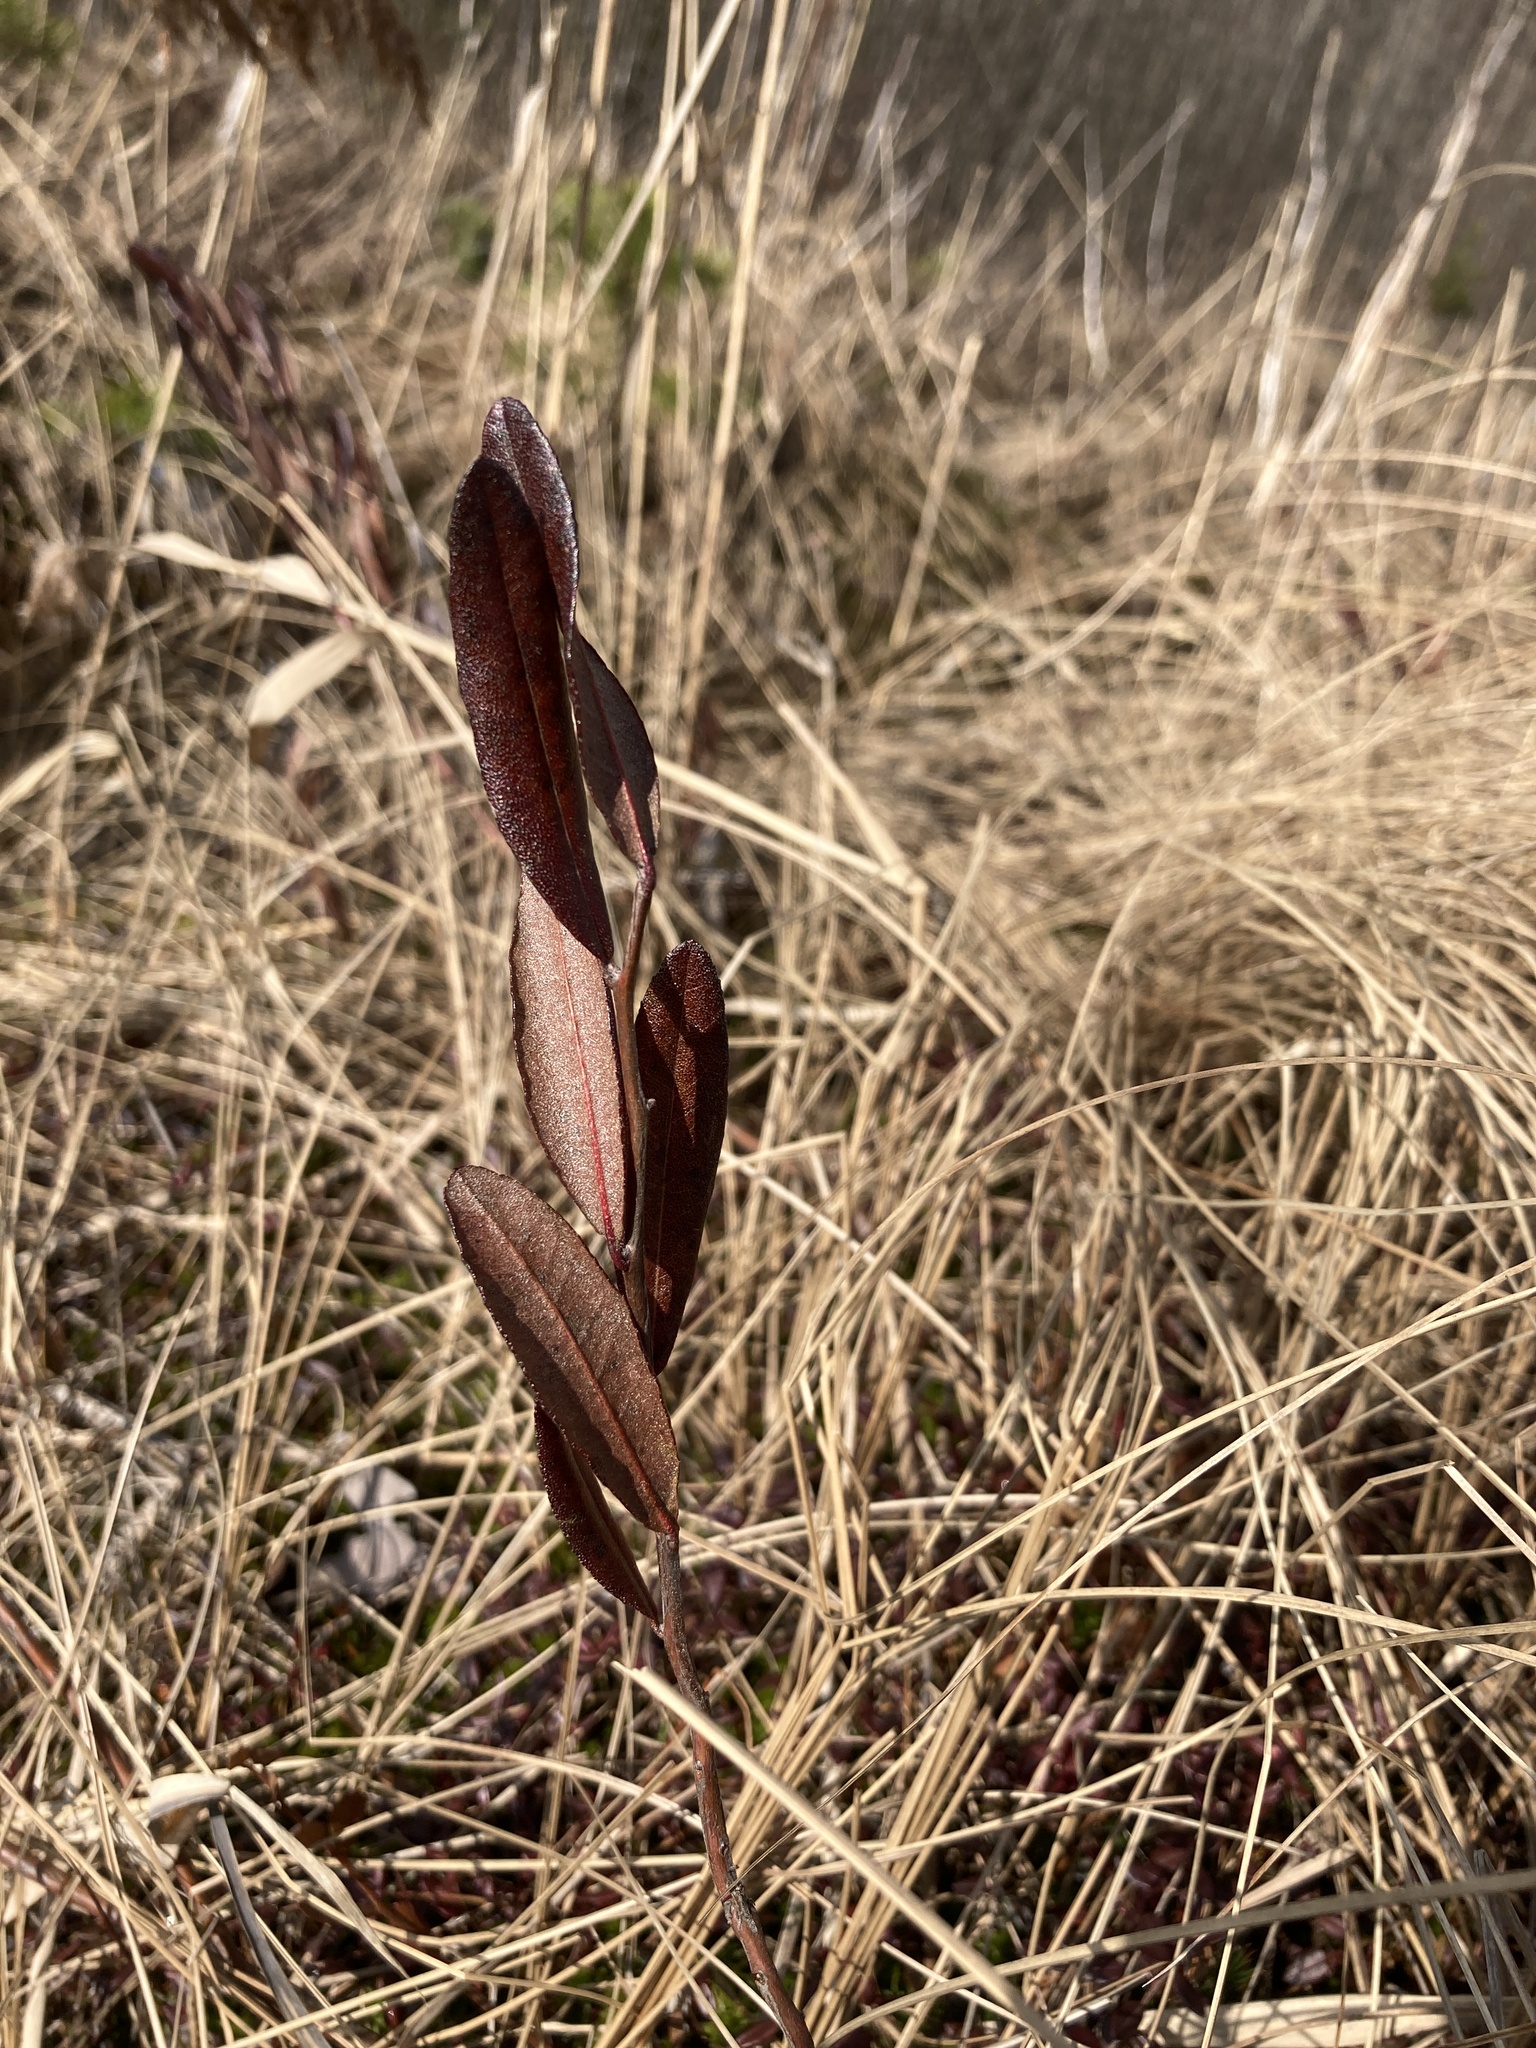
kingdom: Plantae
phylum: Tracheophyta
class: Magnoliopsida
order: Ericales
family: Ericaceae
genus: Chamaedaphne
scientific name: Chamaedaphne calyculata
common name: Leatherleaf
